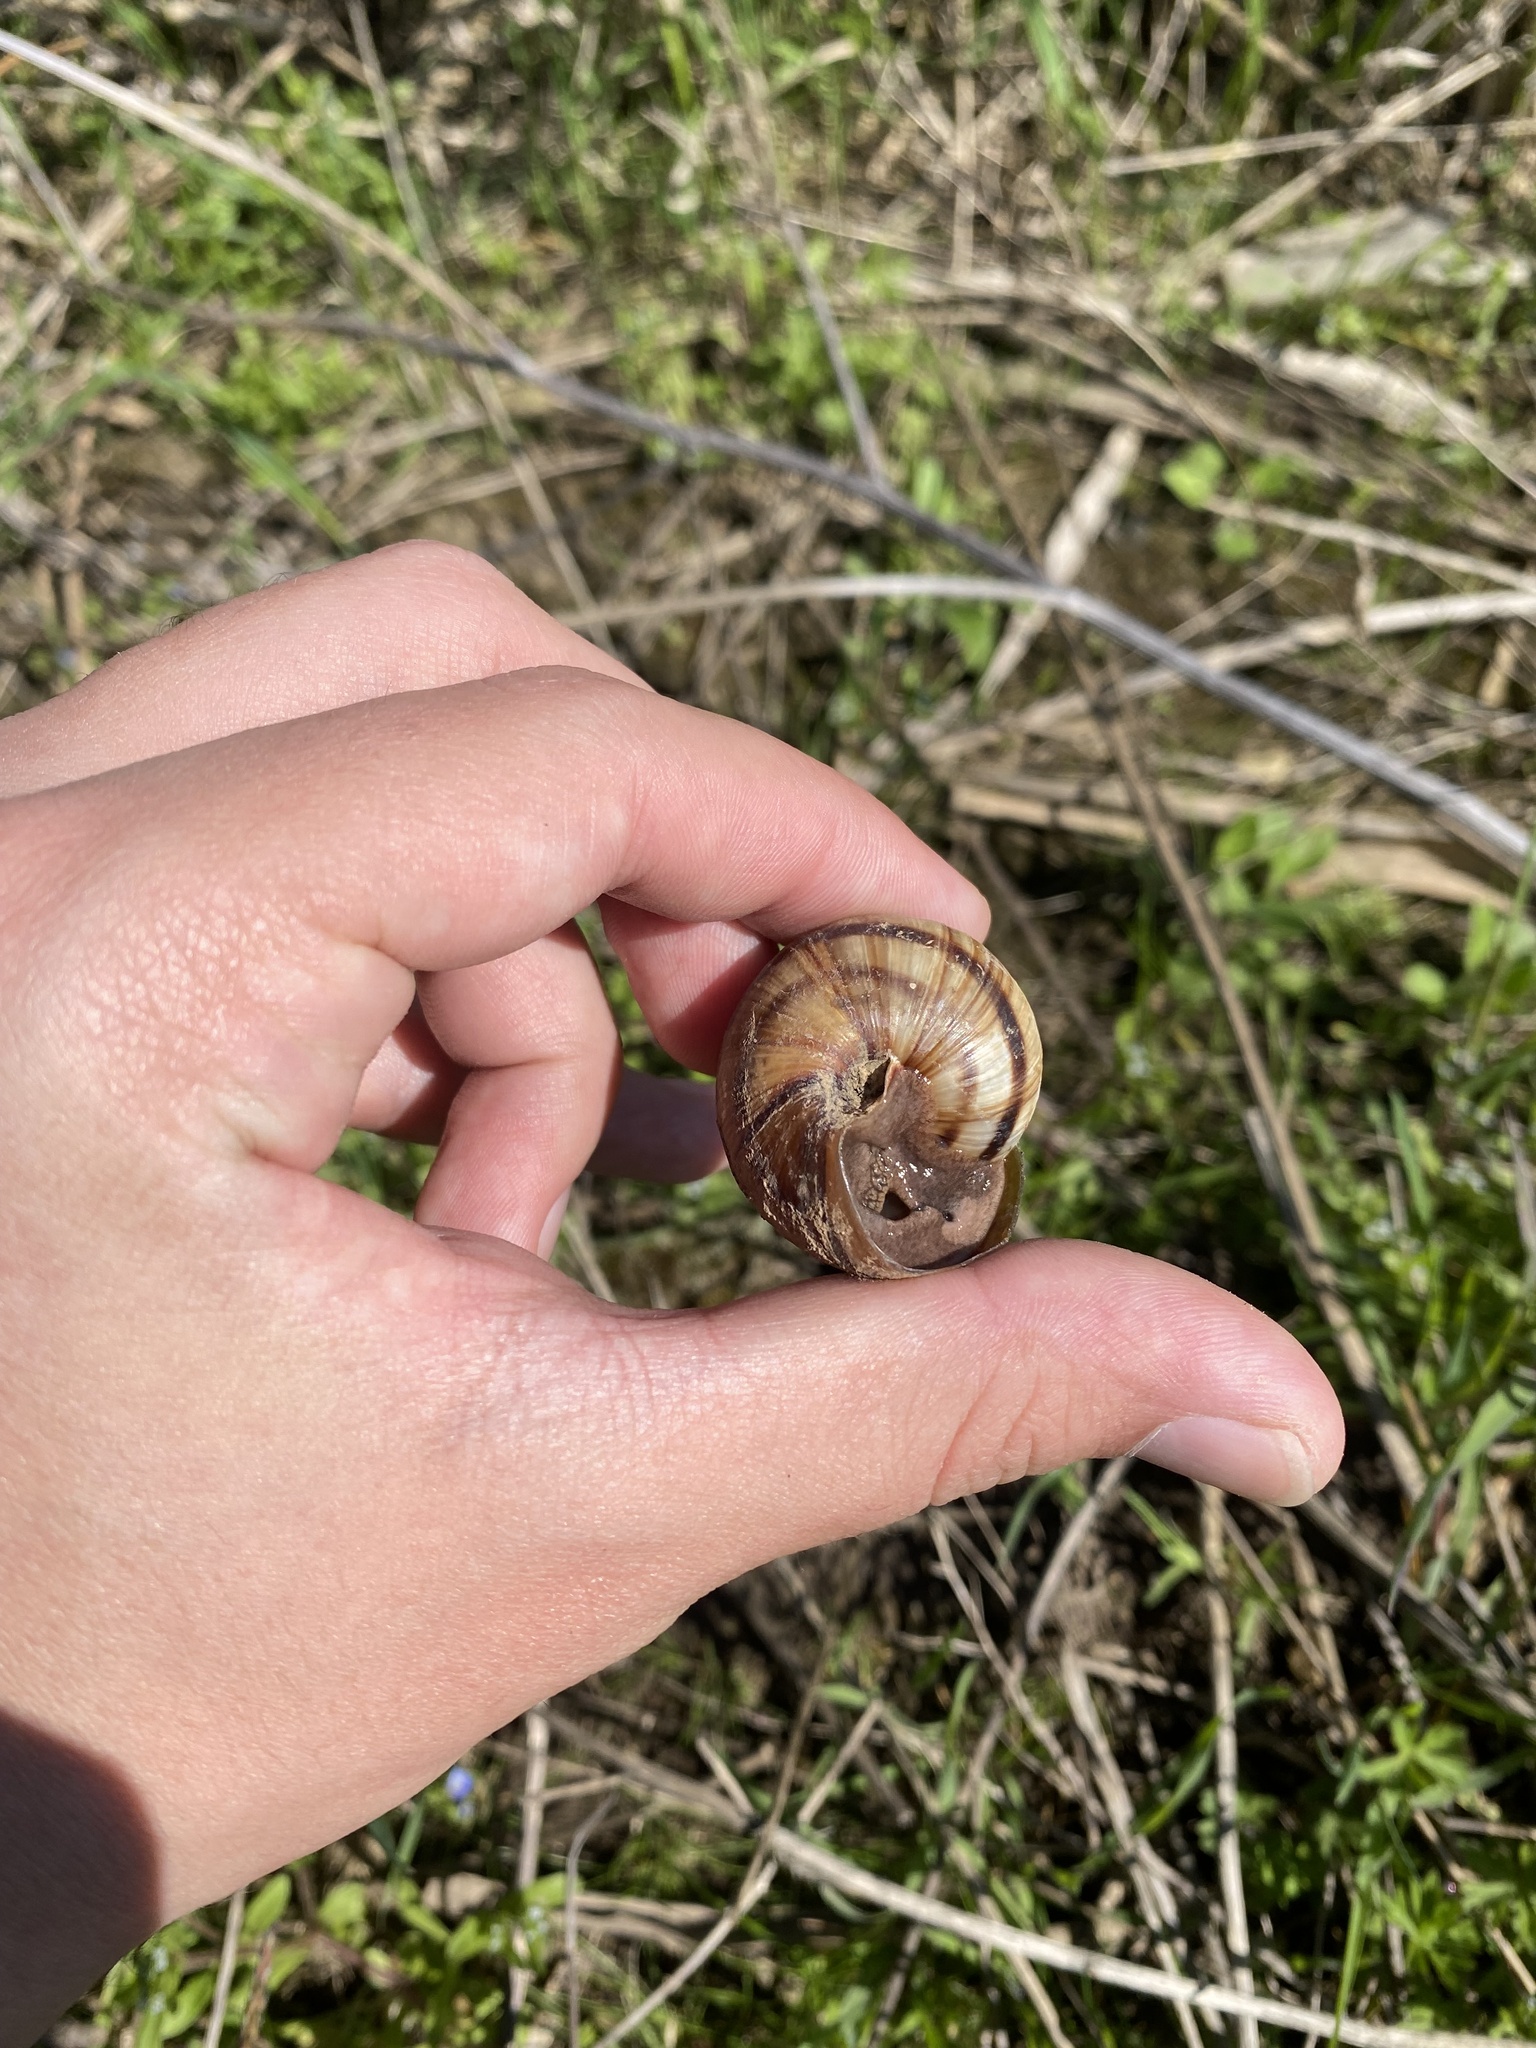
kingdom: Animalia
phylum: Mollusca
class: Gastropoda
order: Stylommatophora
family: Helicidae
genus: Helix
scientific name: Helix lucorum
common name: Turkish snail
